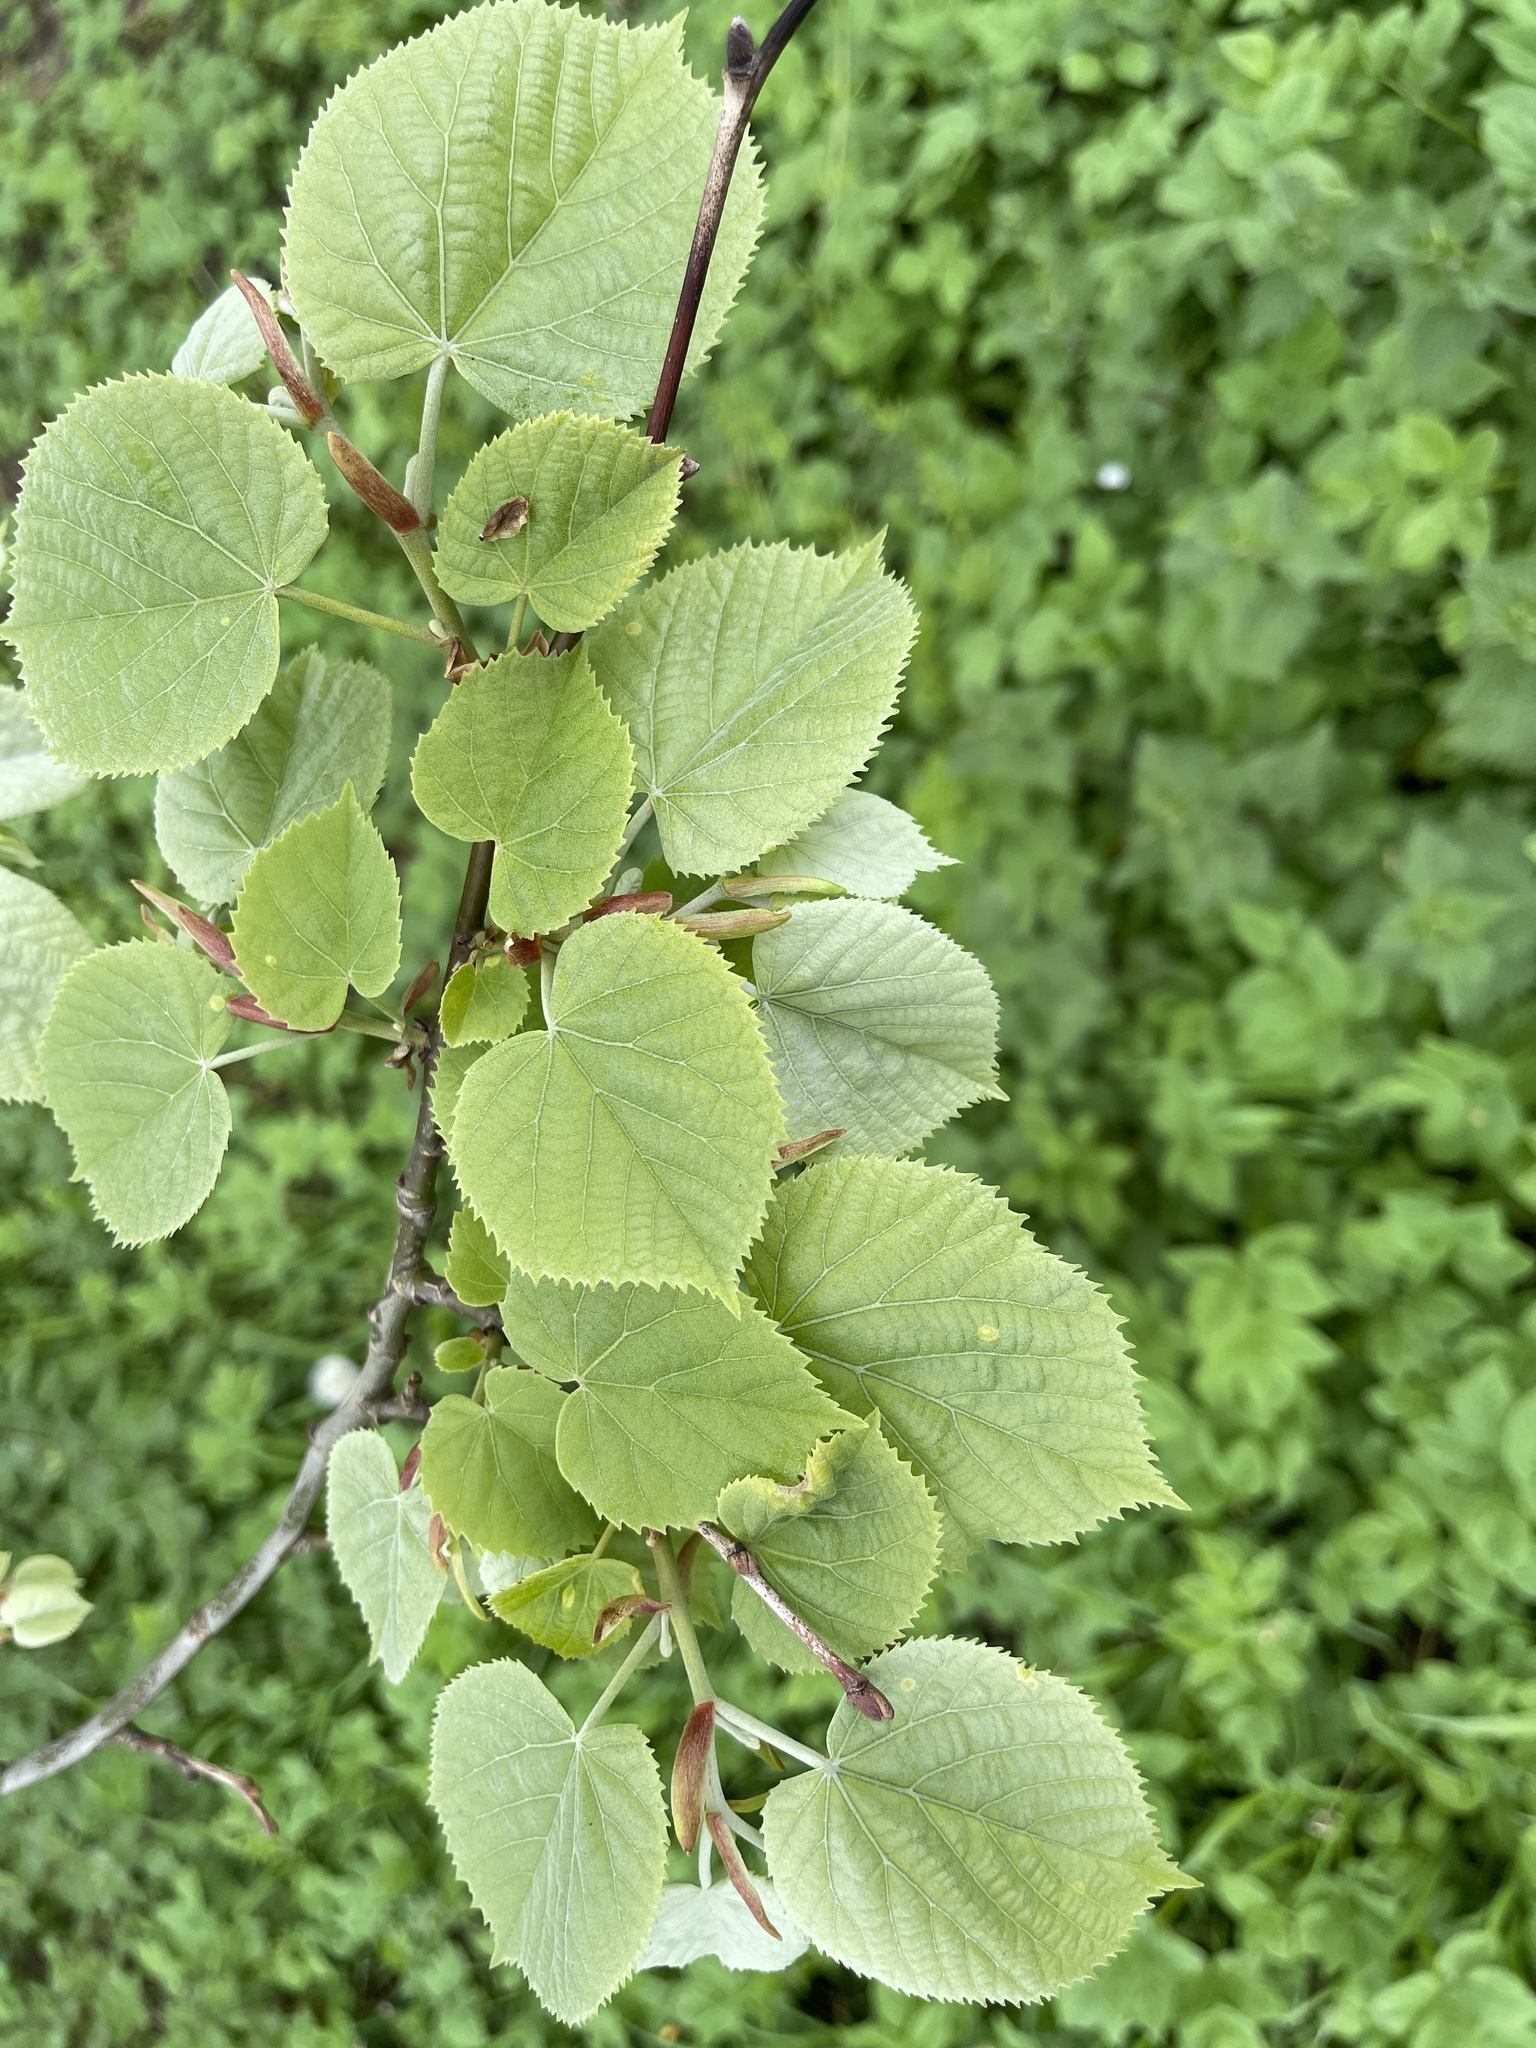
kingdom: Plantae
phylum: Tracheophyta
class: Magnoliopsida
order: Malvales
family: Malvaceae
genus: Tilia
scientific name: Tilia tomentosa
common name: Silver lime
